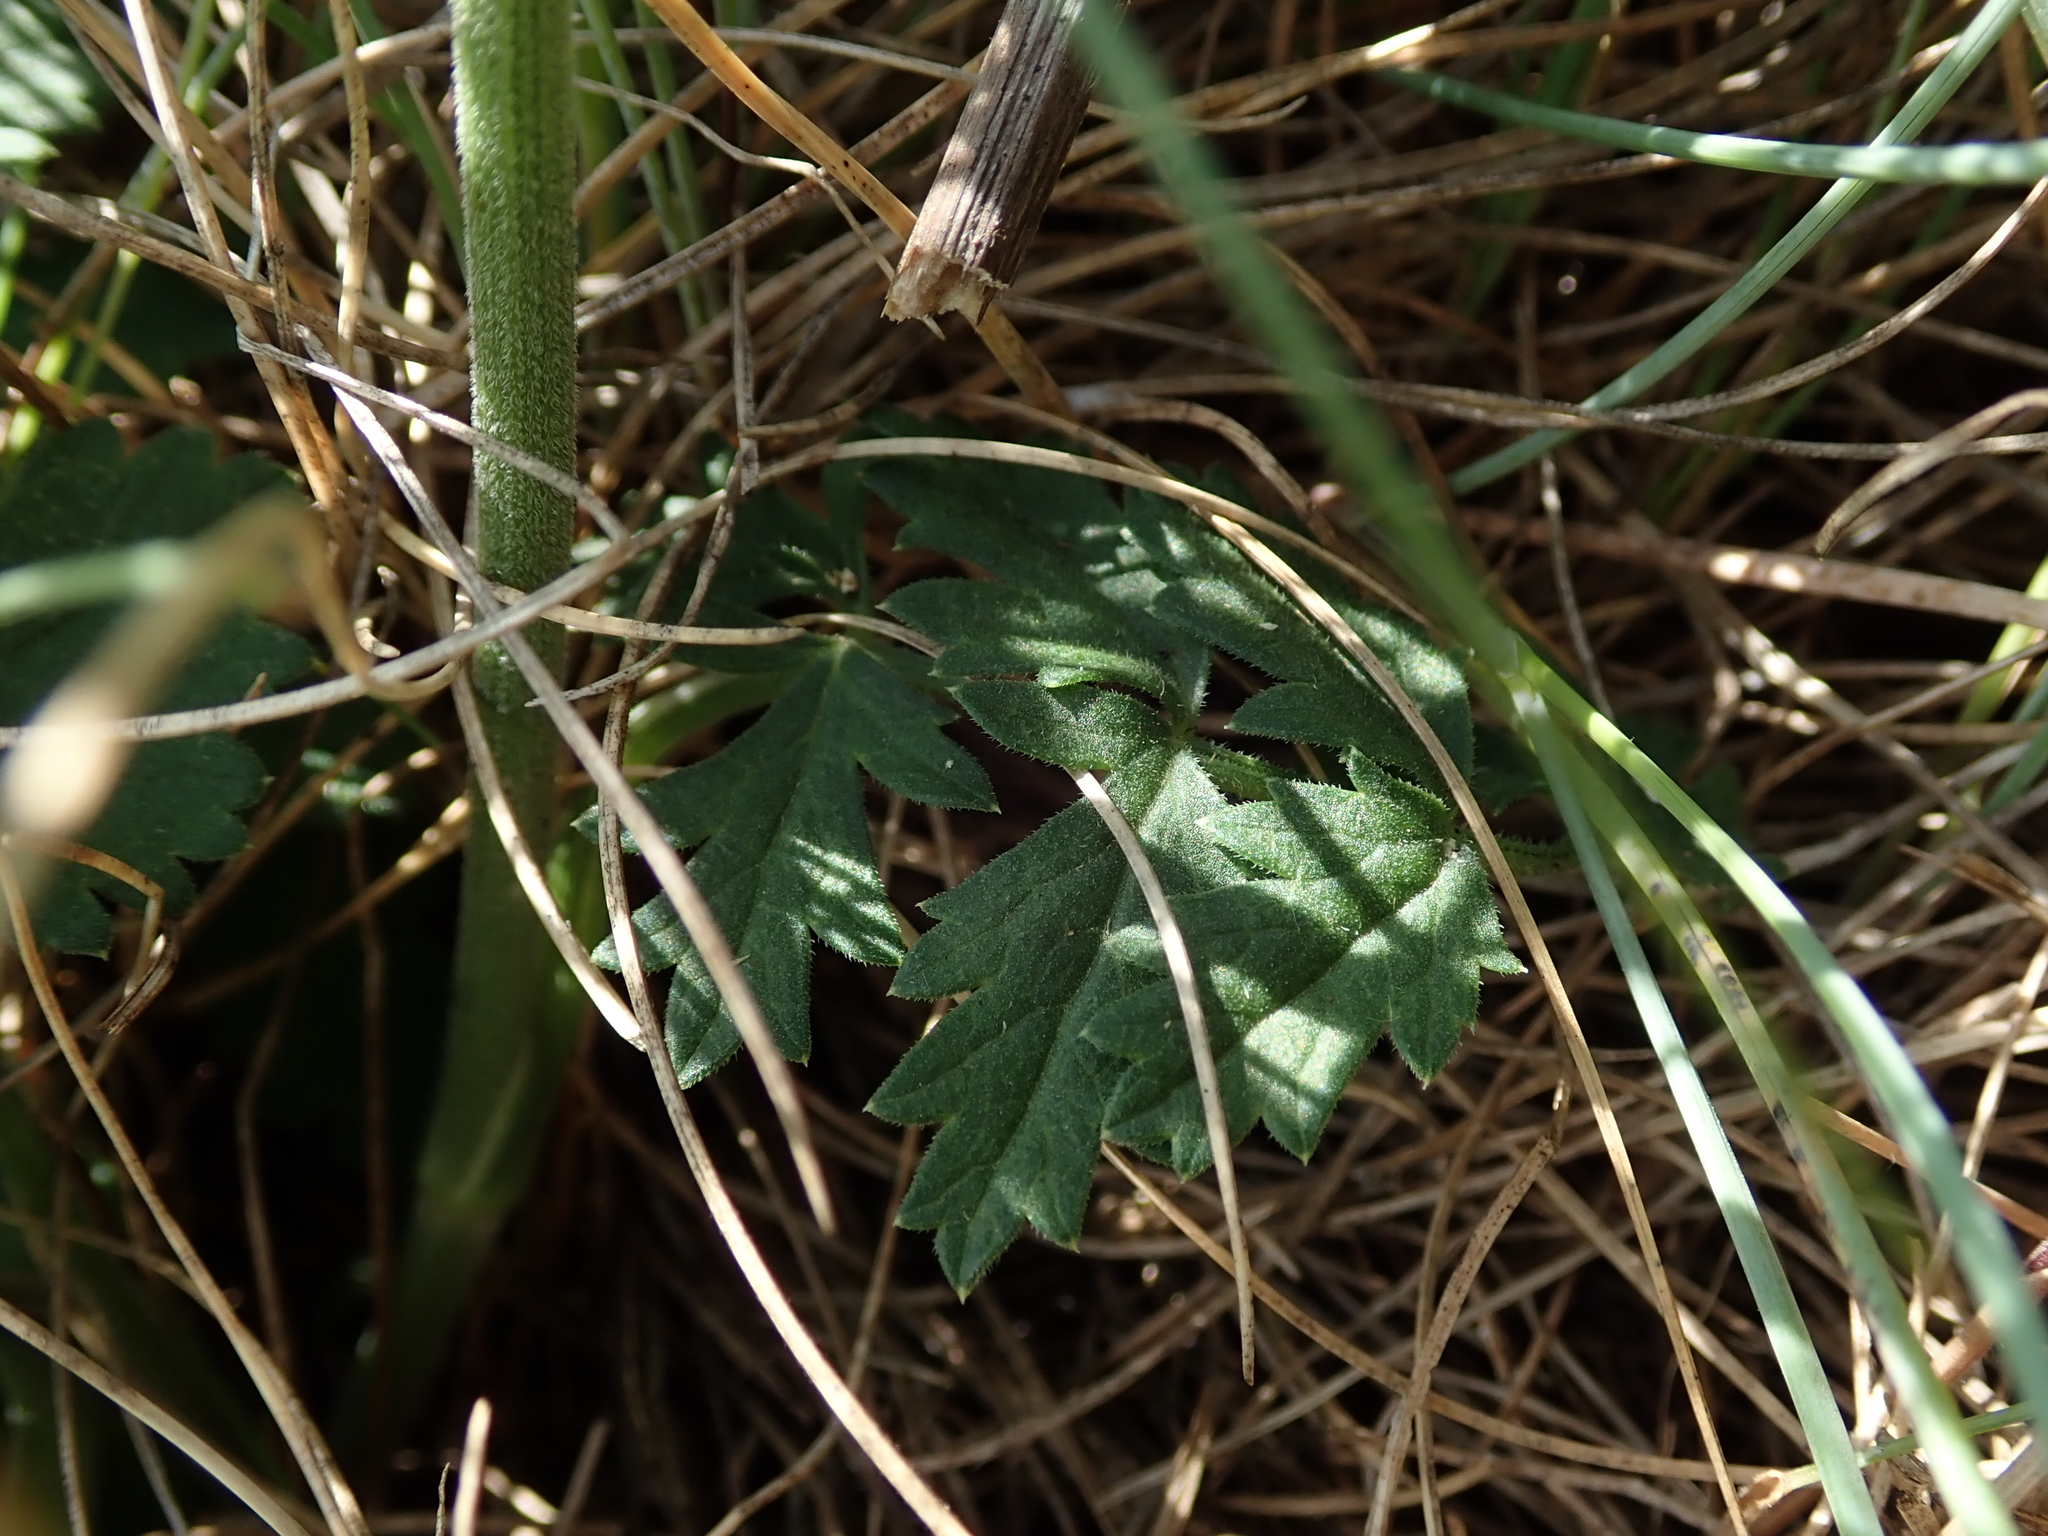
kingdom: Plantae
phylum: Tracheophyta
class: Magnoliopsida
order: Apiales
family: Apiaceae
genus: Pimpinella
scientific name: Pimpinella saxifraga
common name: Burnet-saxifrage
